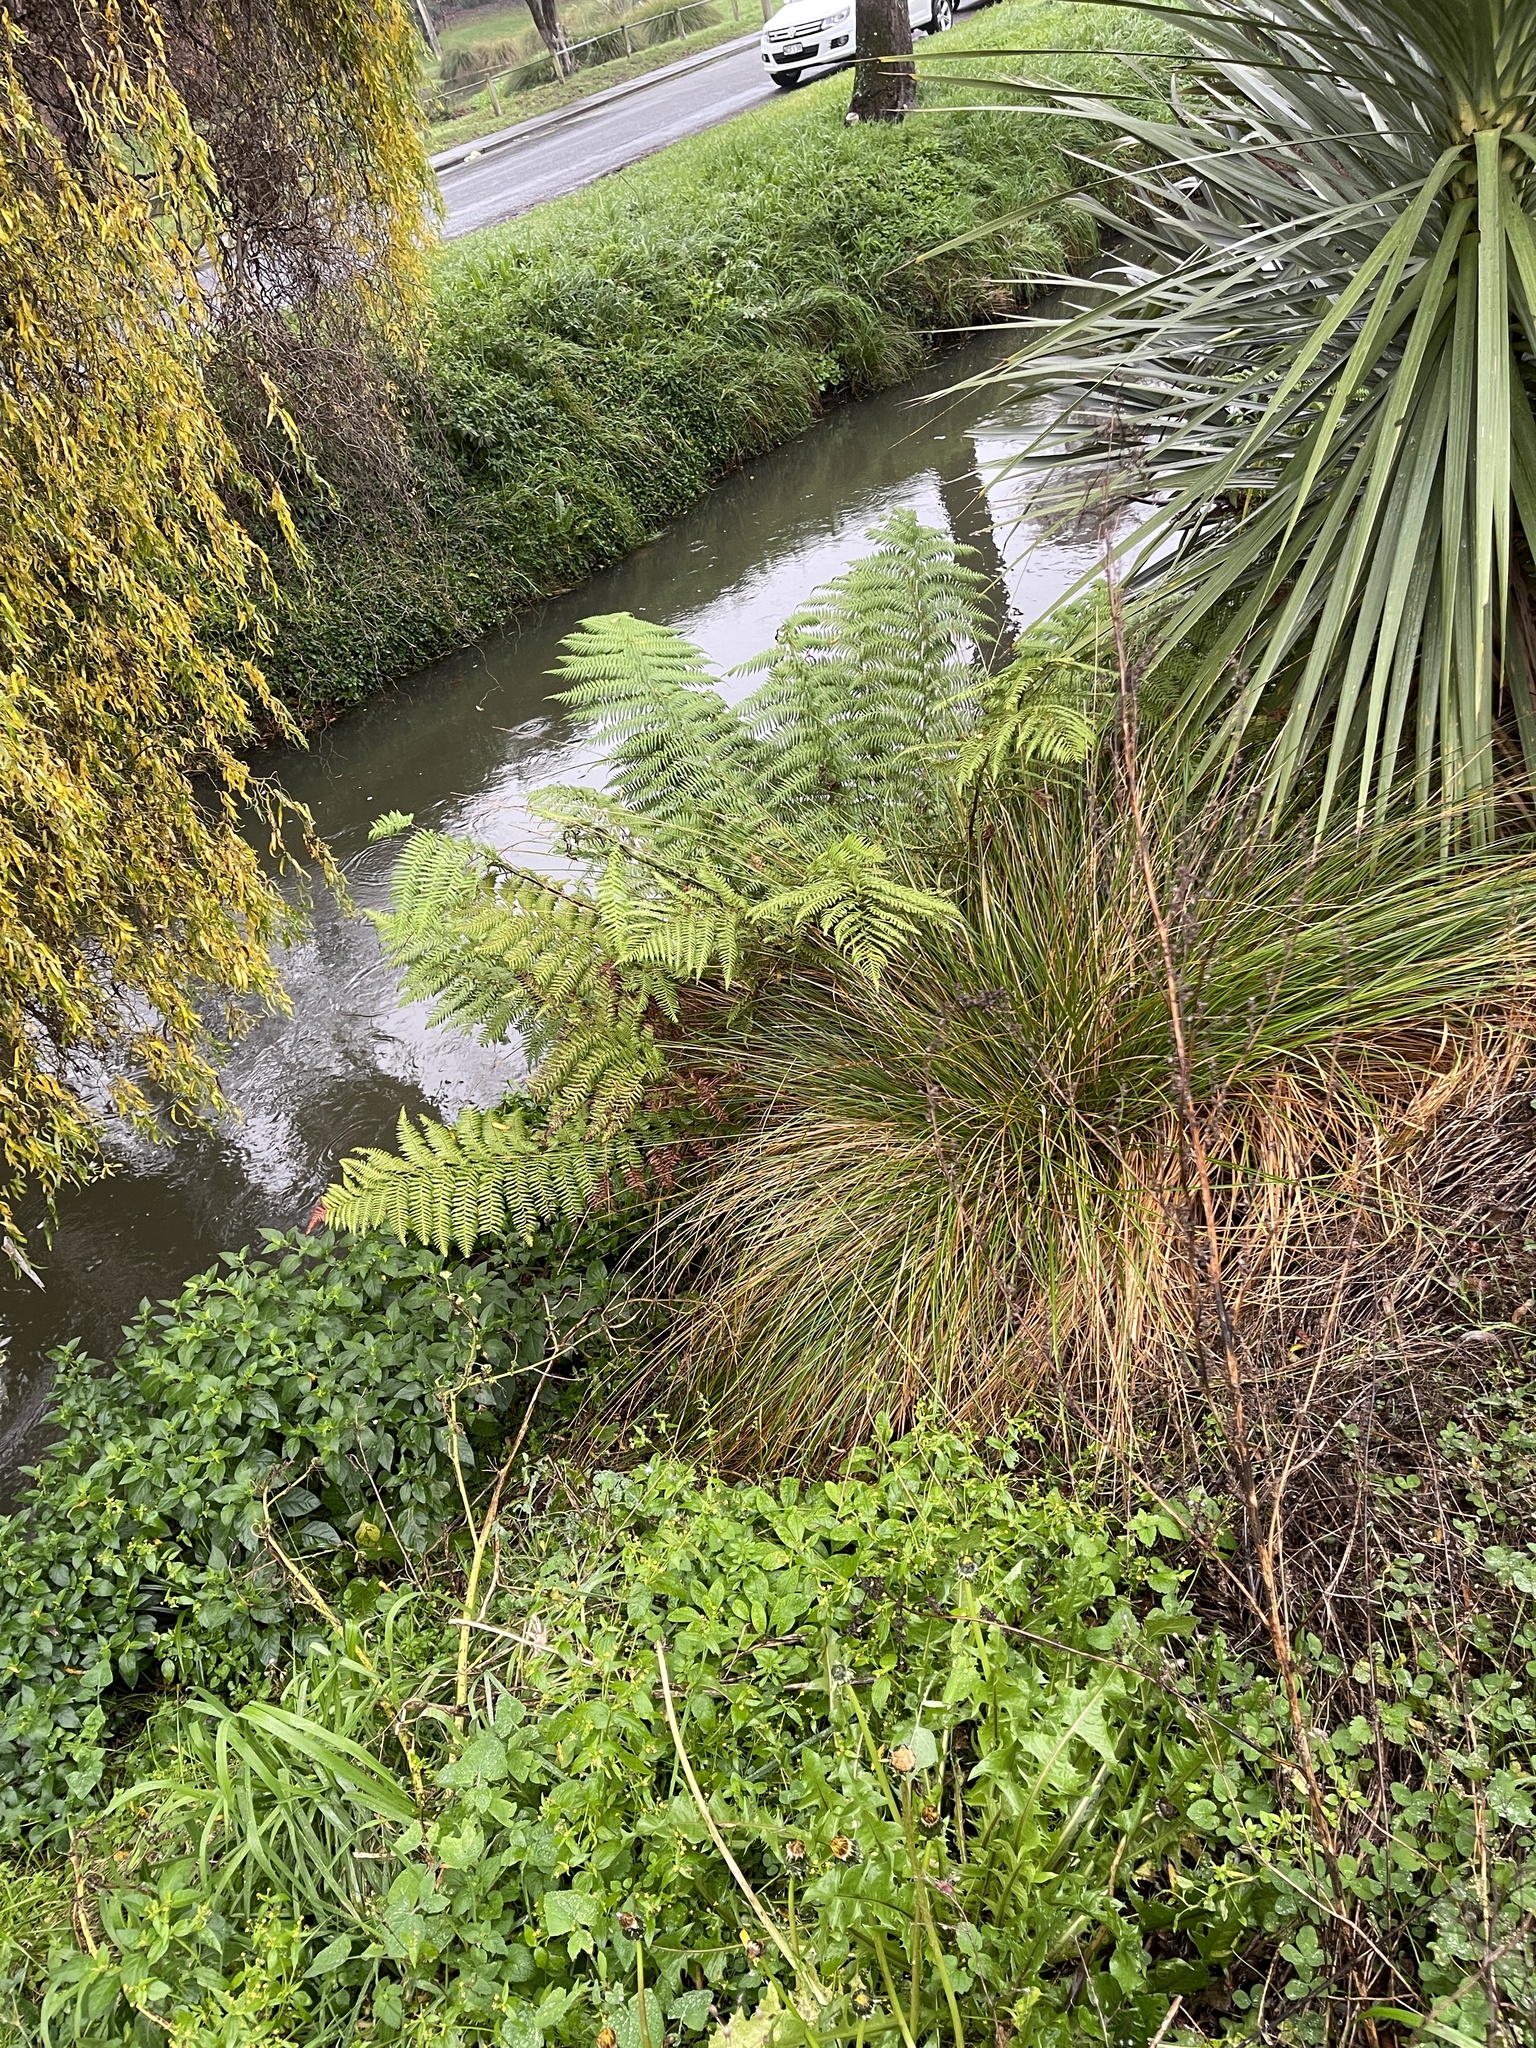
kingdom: Plantae
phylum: Tracheophyta
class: Polypodiopsida
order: Cyatheales
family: Dicksoniaceae
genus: Dicksonia
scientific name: Dicksonia fibrosa
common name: Golden tree fern
